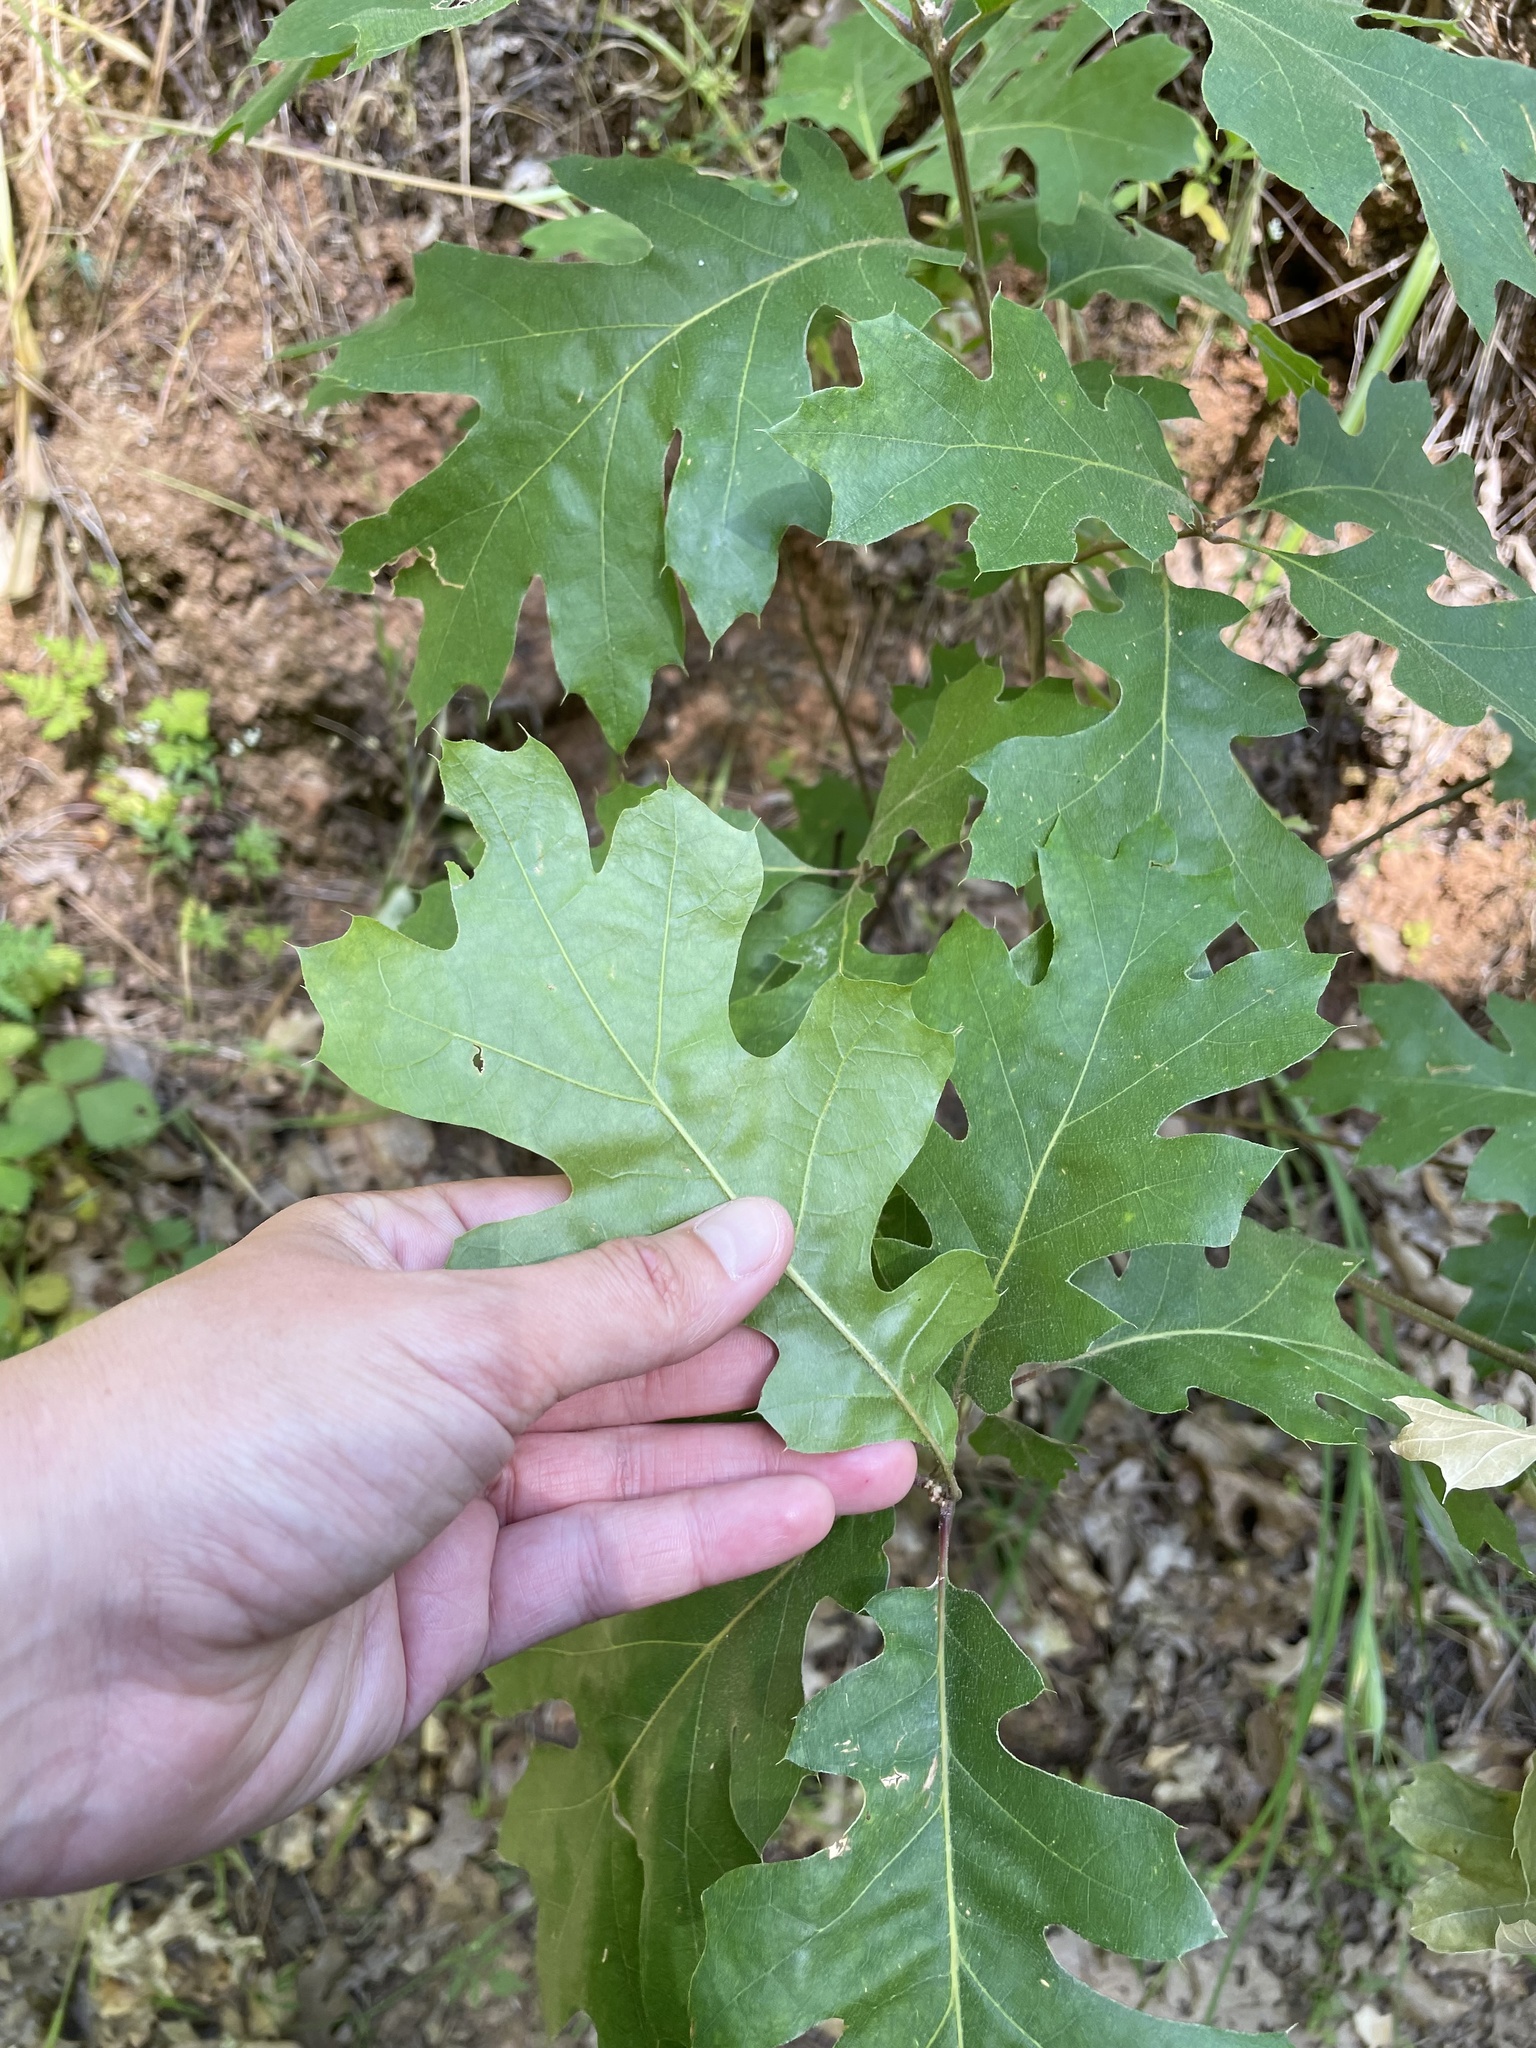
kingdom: Plantae
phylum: Tracheophyta
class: Magnoliopsida
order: Fagales
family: Fagaceae
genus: Quercus
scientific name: Quercus kelloggii
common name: California black oak
